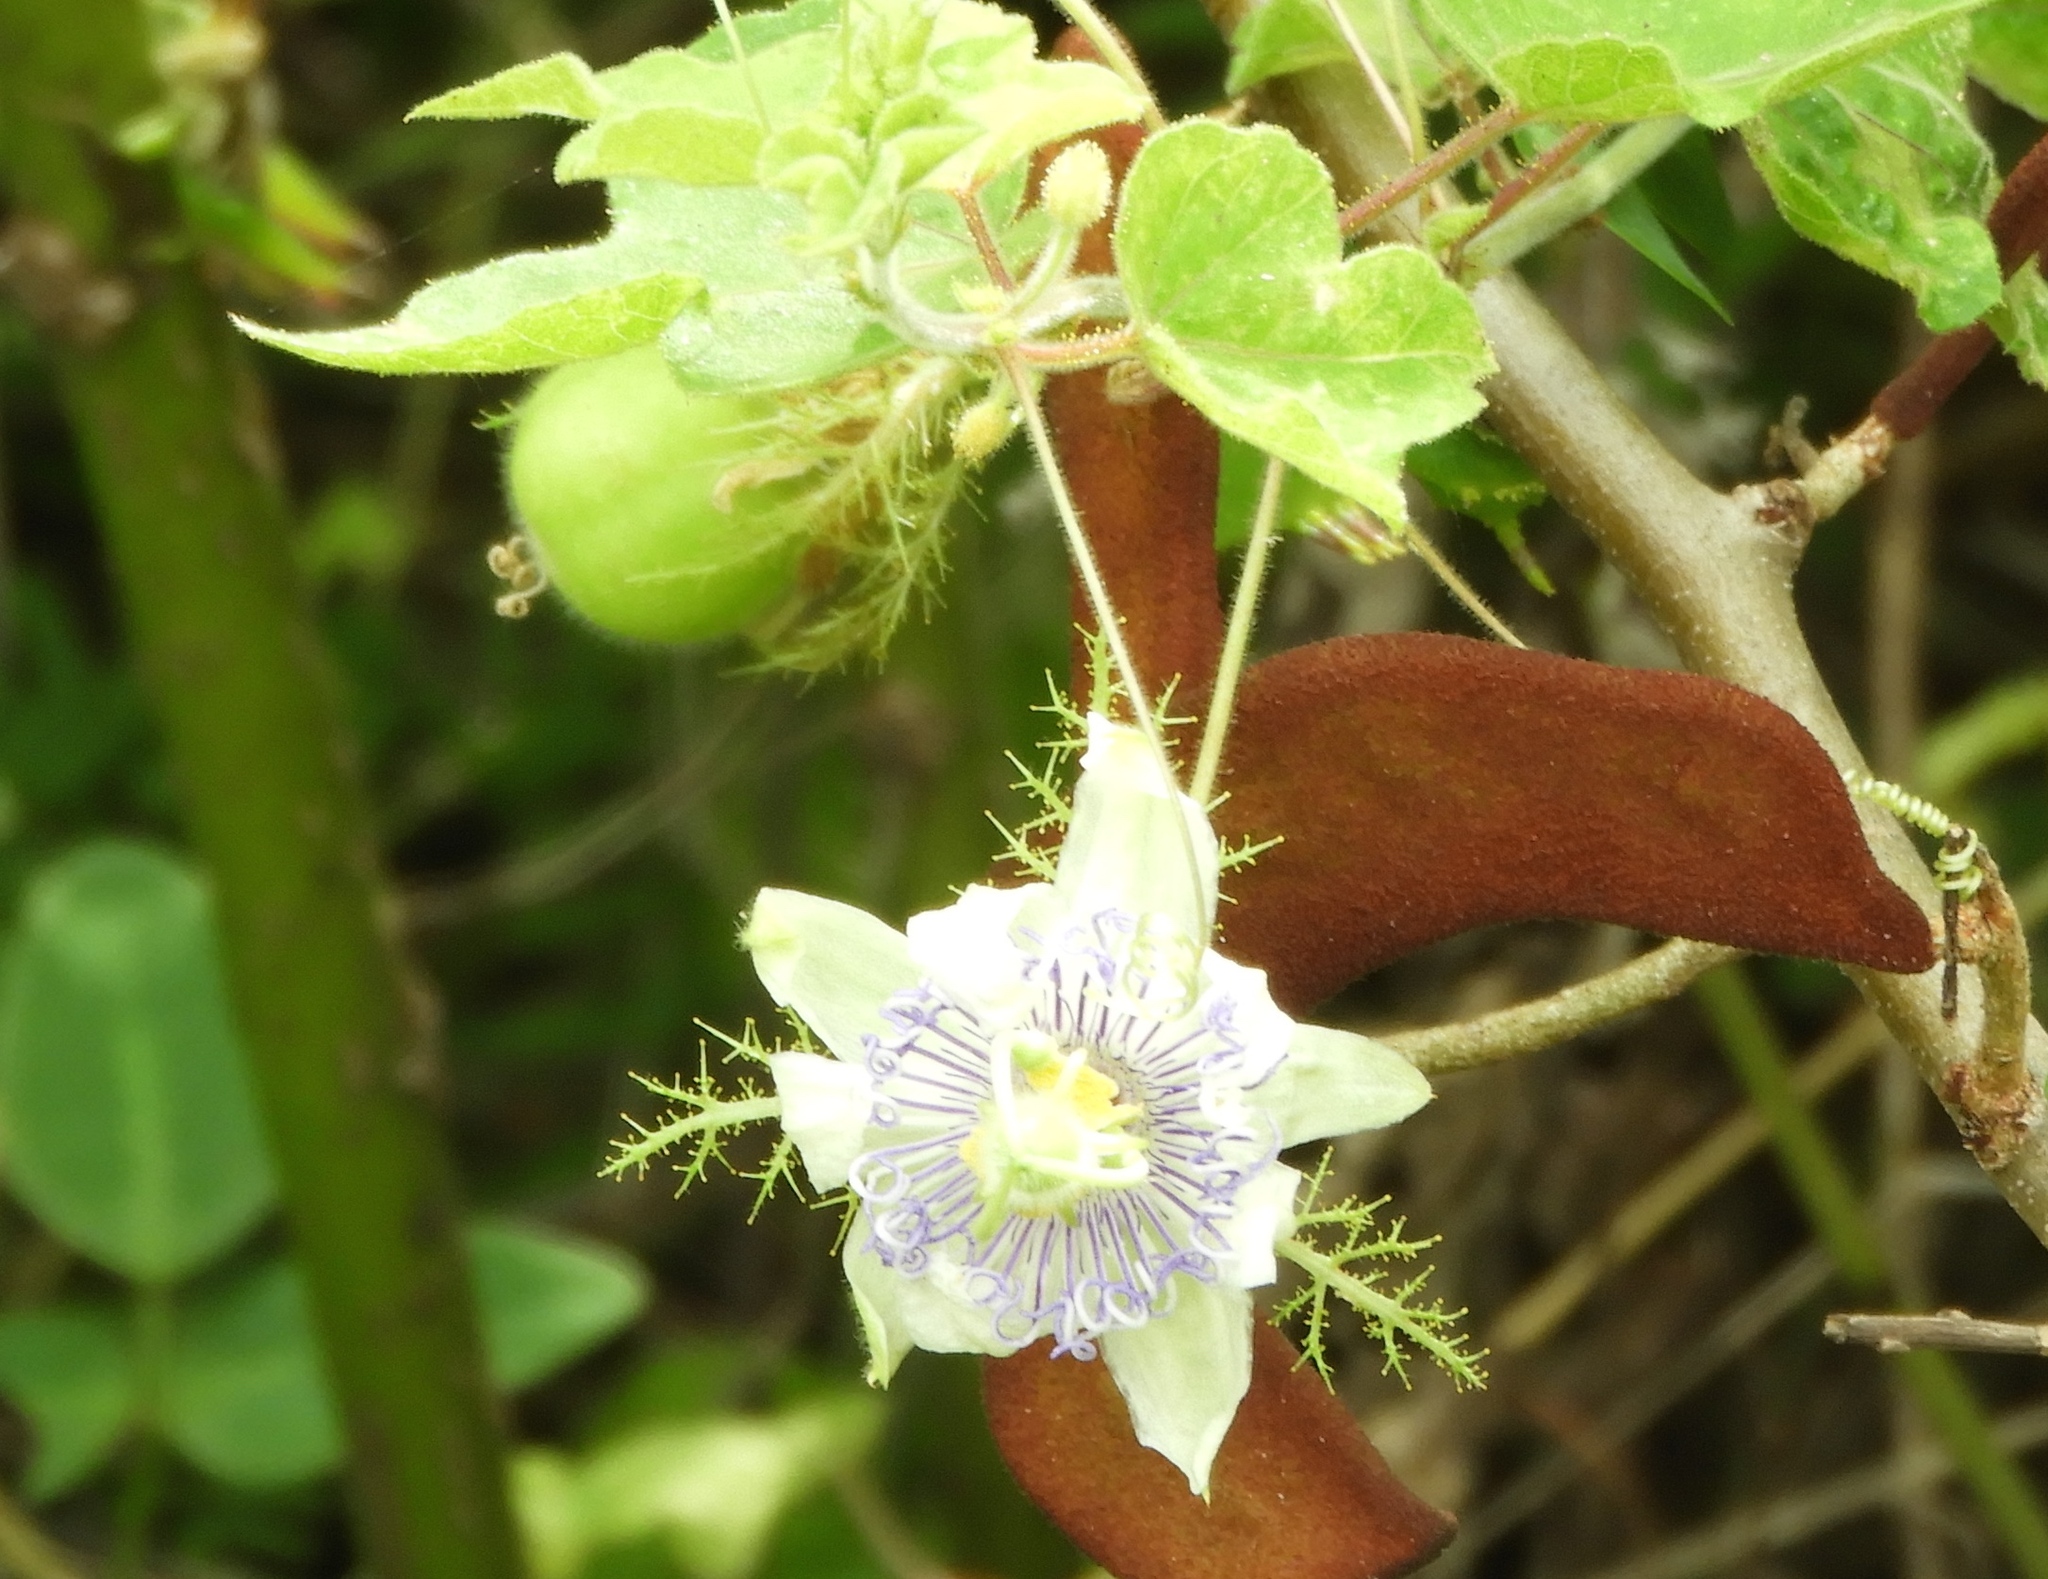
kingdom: Plantae
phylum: Tracheophyta
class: Magnoliopsida
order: Malpighiales
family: Passifloraceae
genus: Passiflora
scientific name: Passiflora foetida
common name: Fetid passionflower
